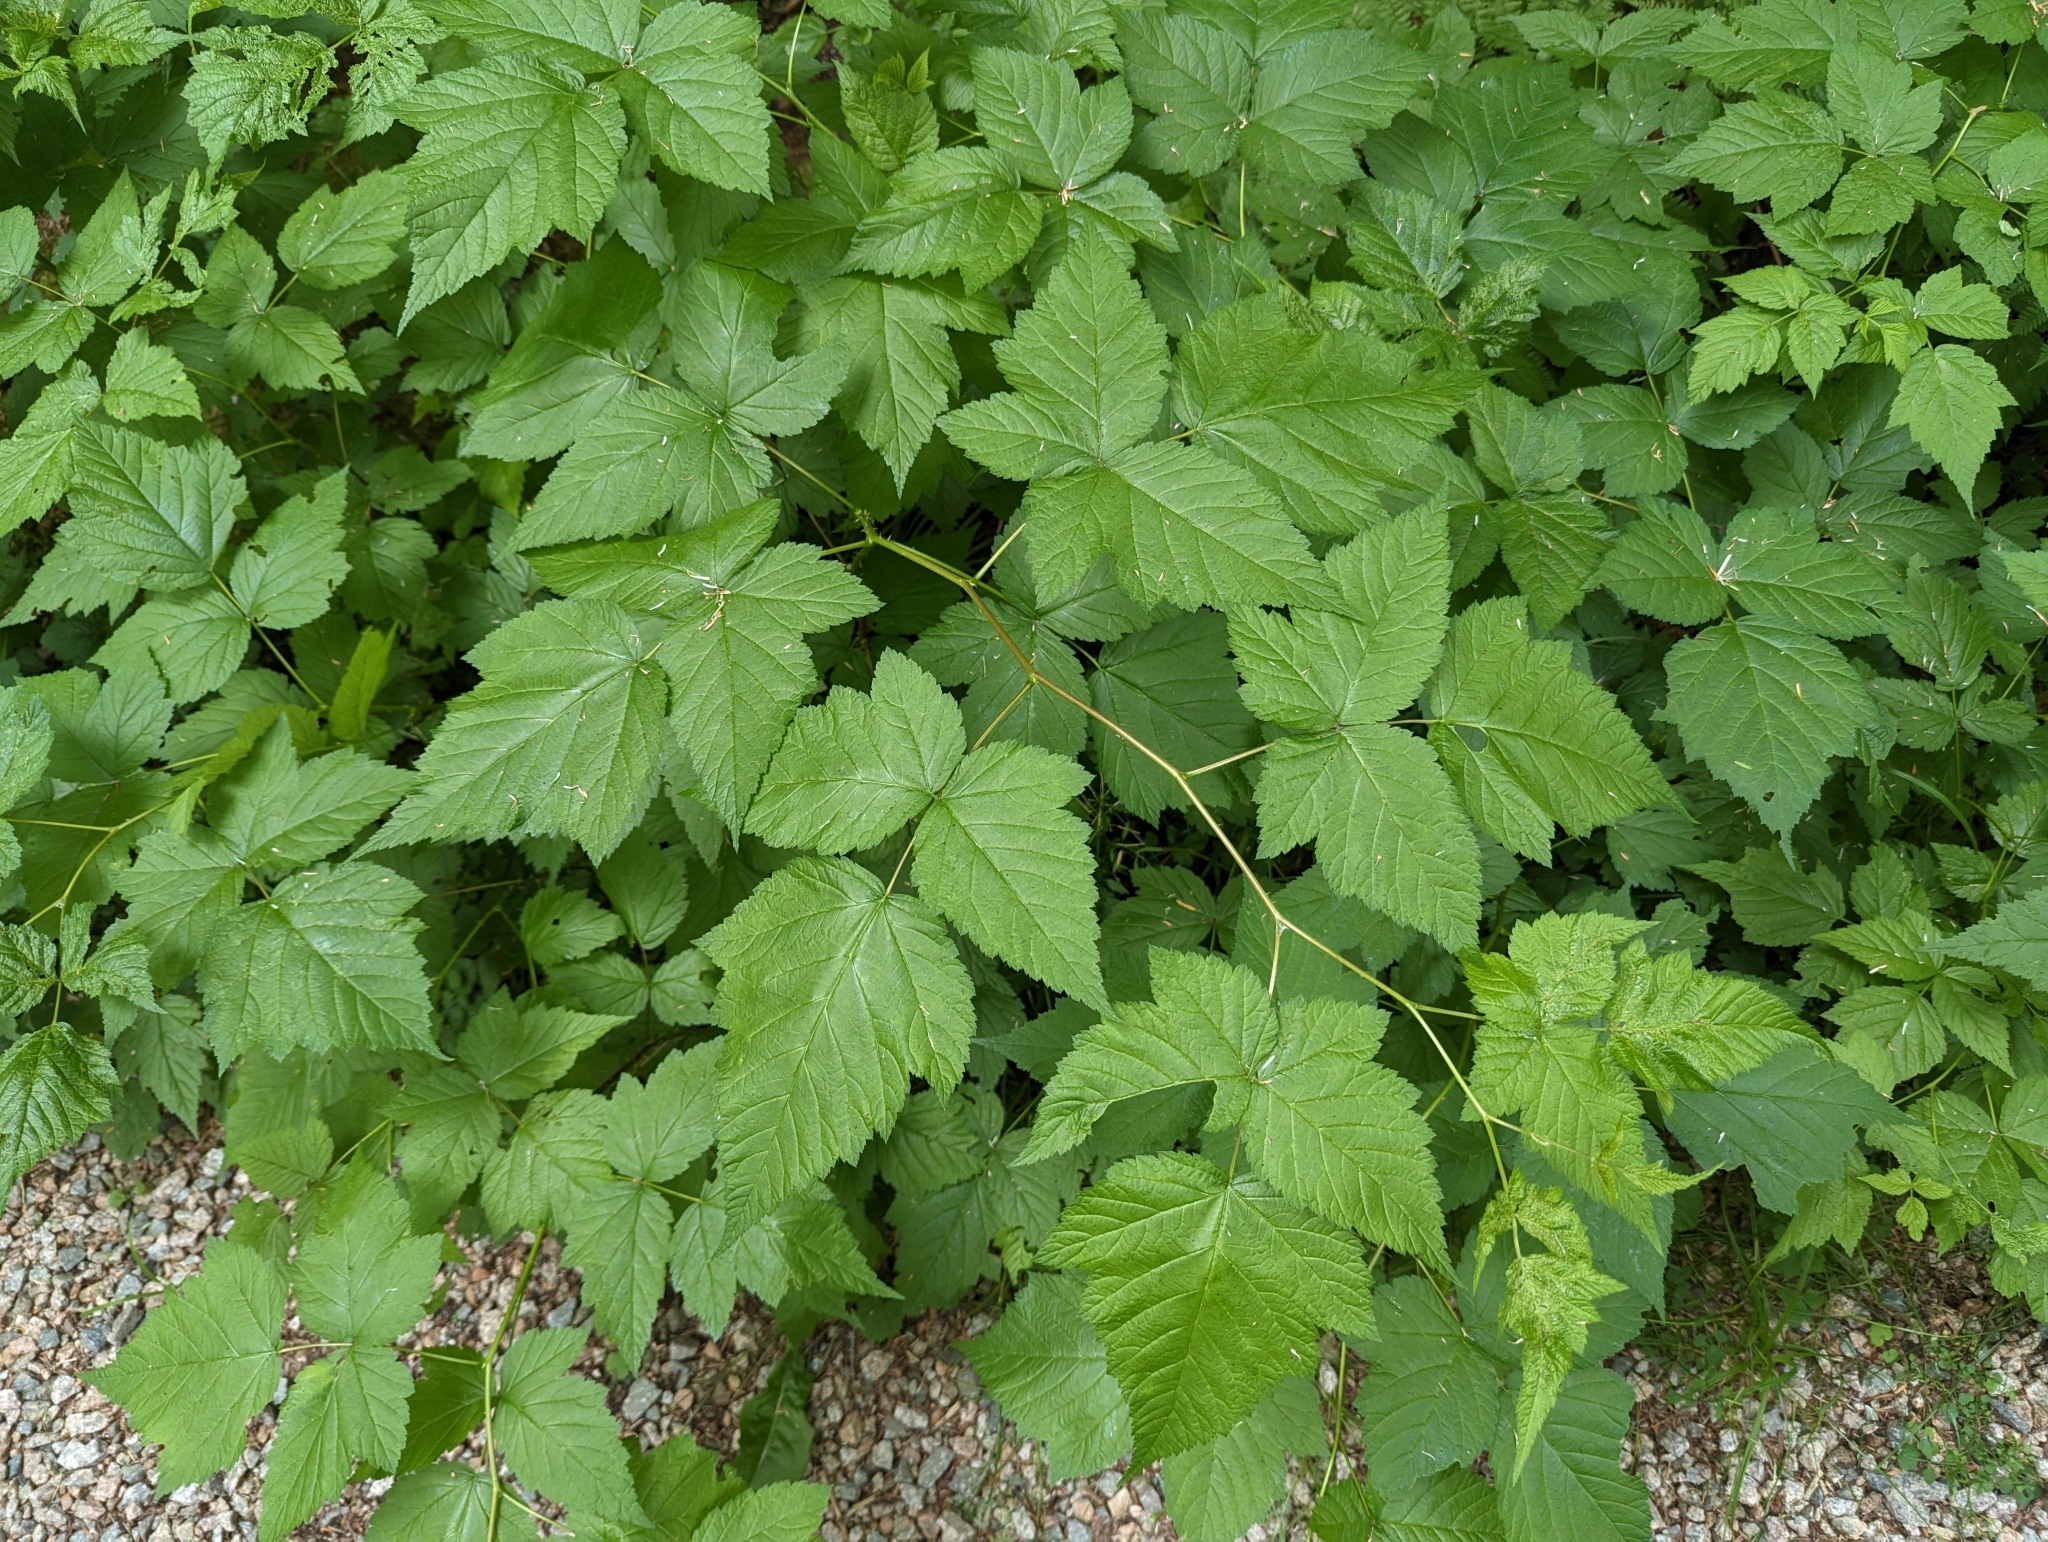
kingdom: Plantae
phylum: Tracheophyta
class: Magnoliopsida
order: Rosales
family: Rosaceae
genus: Rubus
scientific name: Rubus spectabilis
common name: Salmonberry
